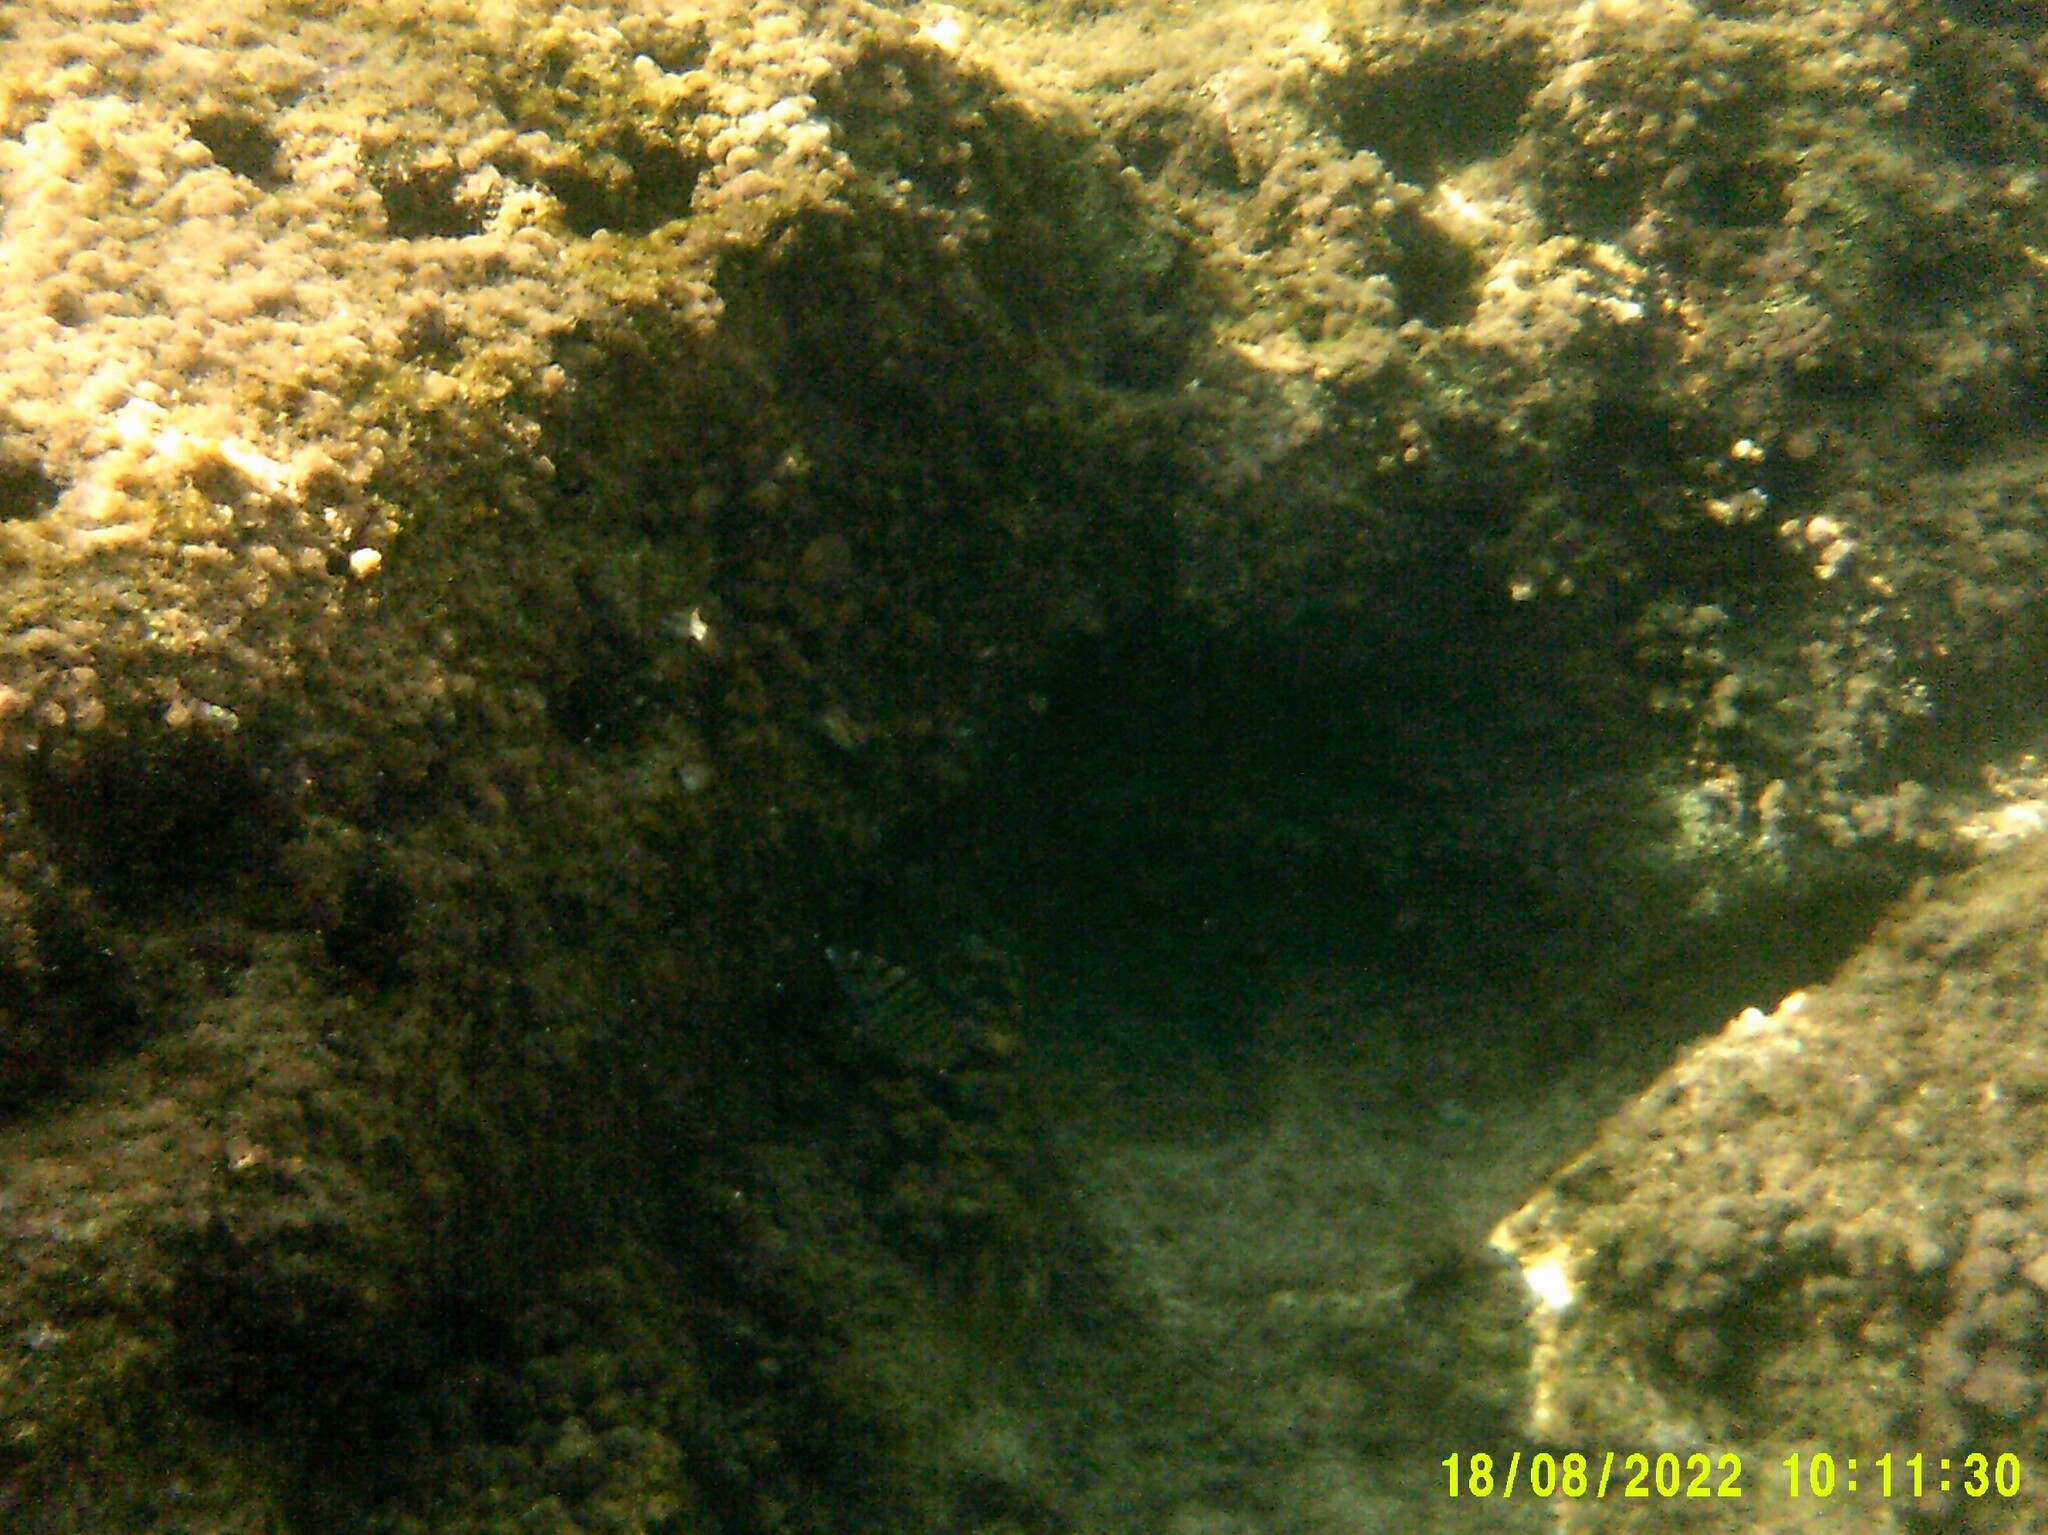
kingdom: Animalia
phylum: Chordata
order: Perciformes
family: Sparidae
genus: Diplodus
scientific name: Diplodus puntazzo
